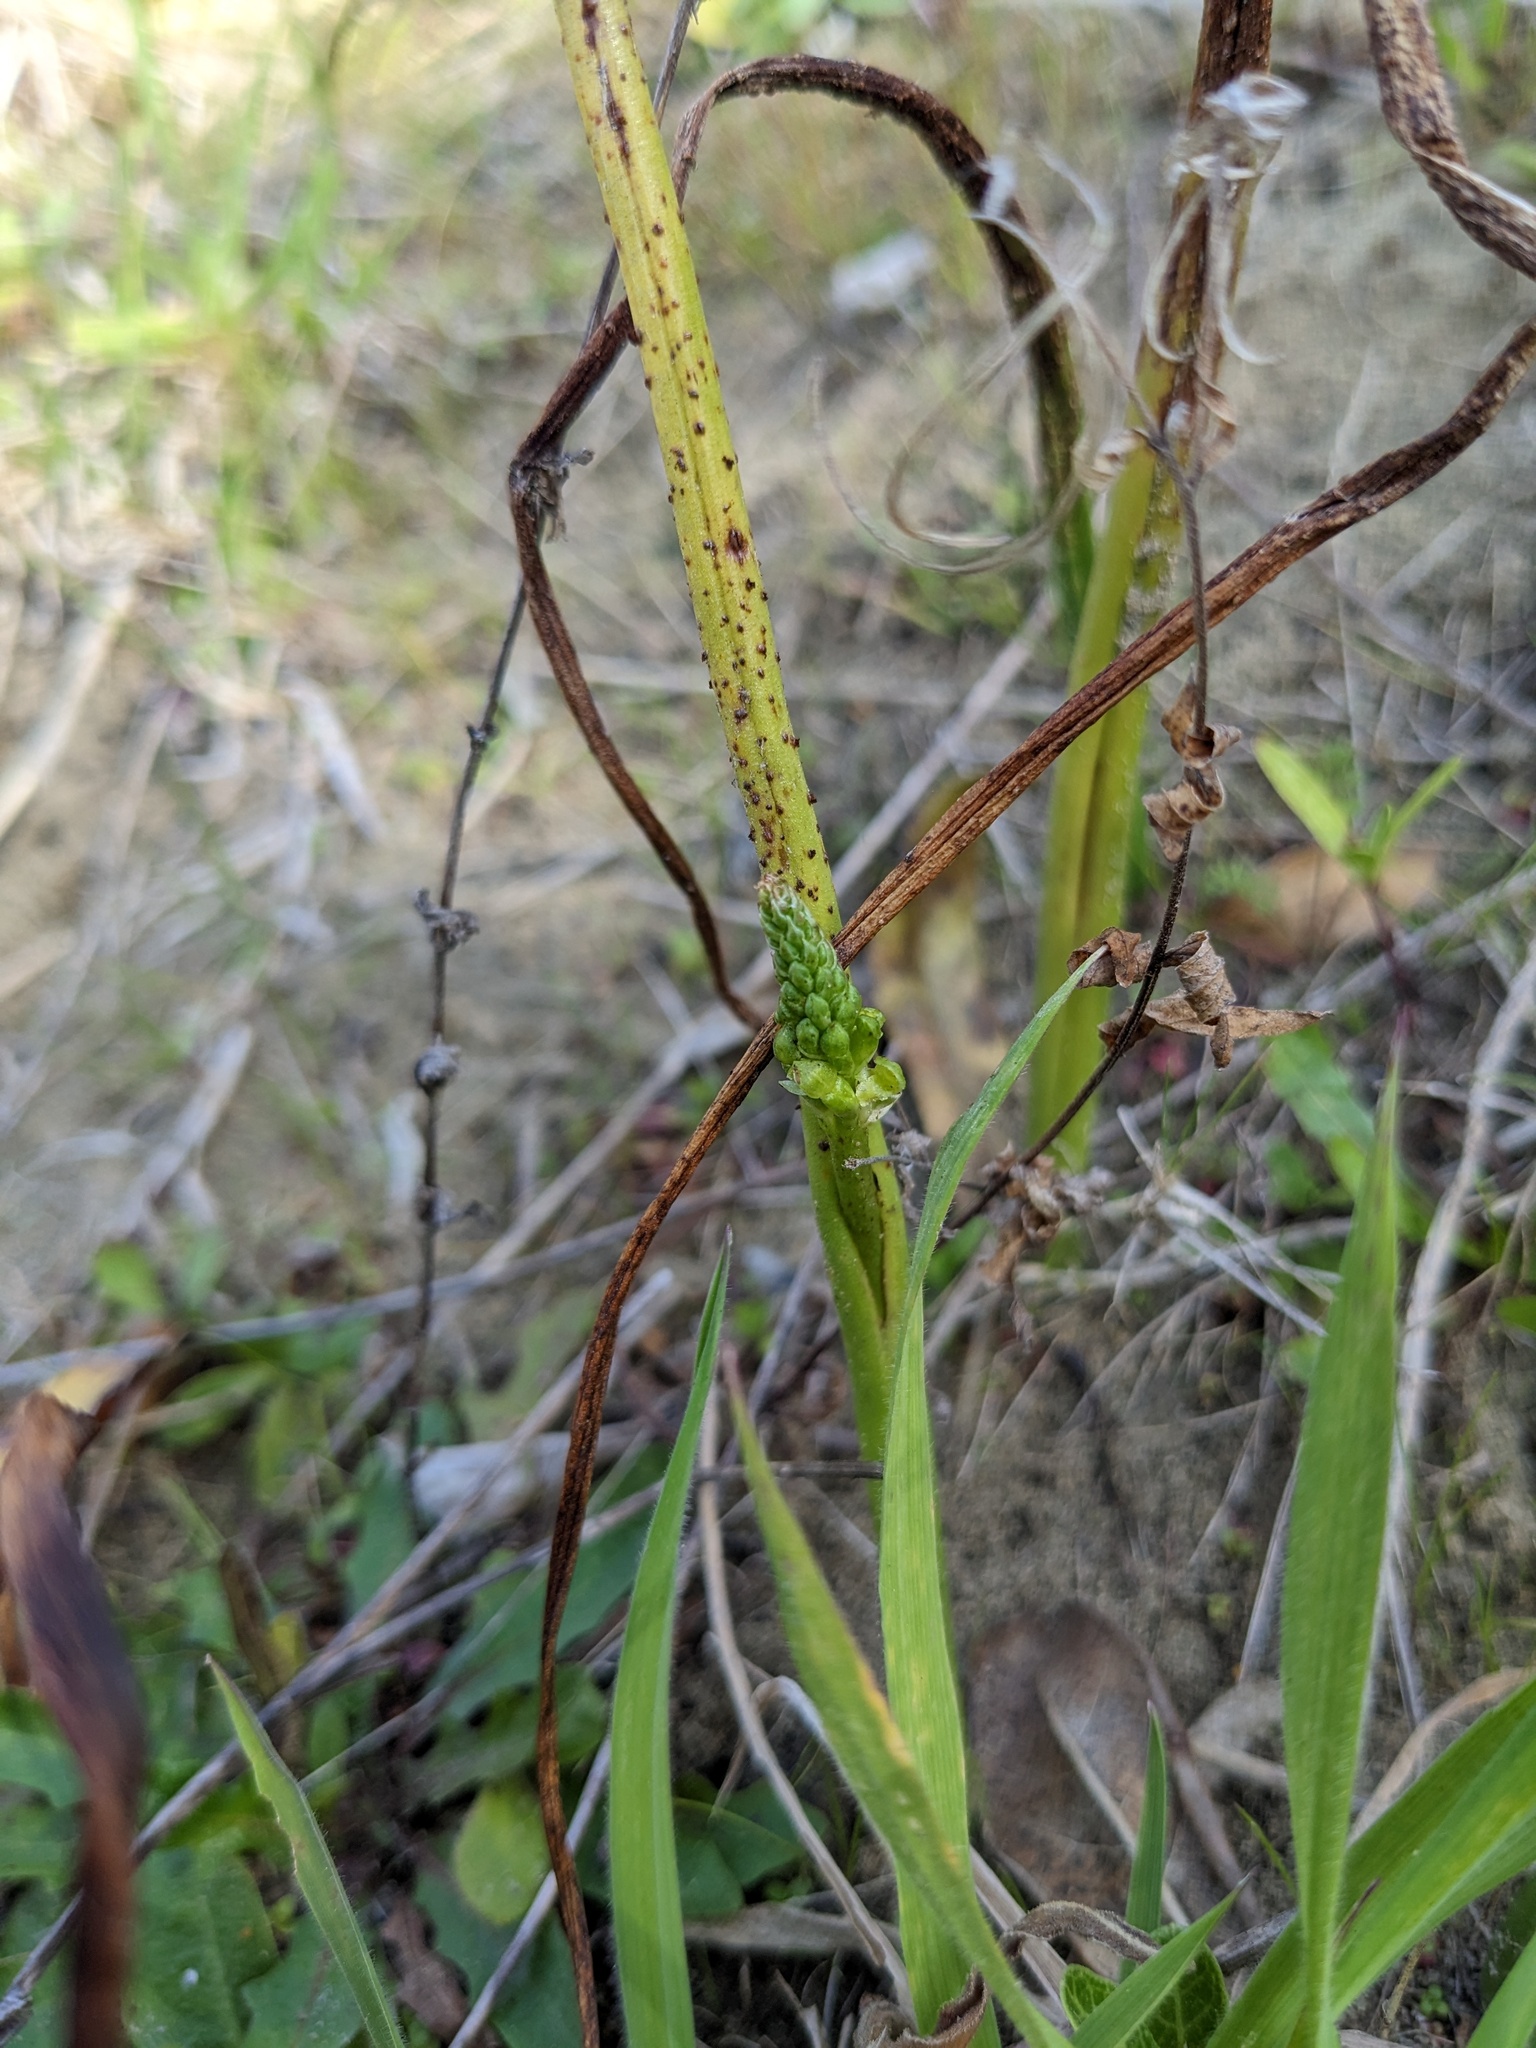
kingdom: Plantae
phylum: Tracheophyta
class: Liliopsida
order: Asparagales
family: Orchidaceae
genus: Microtis
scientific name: Microtis unifolia
